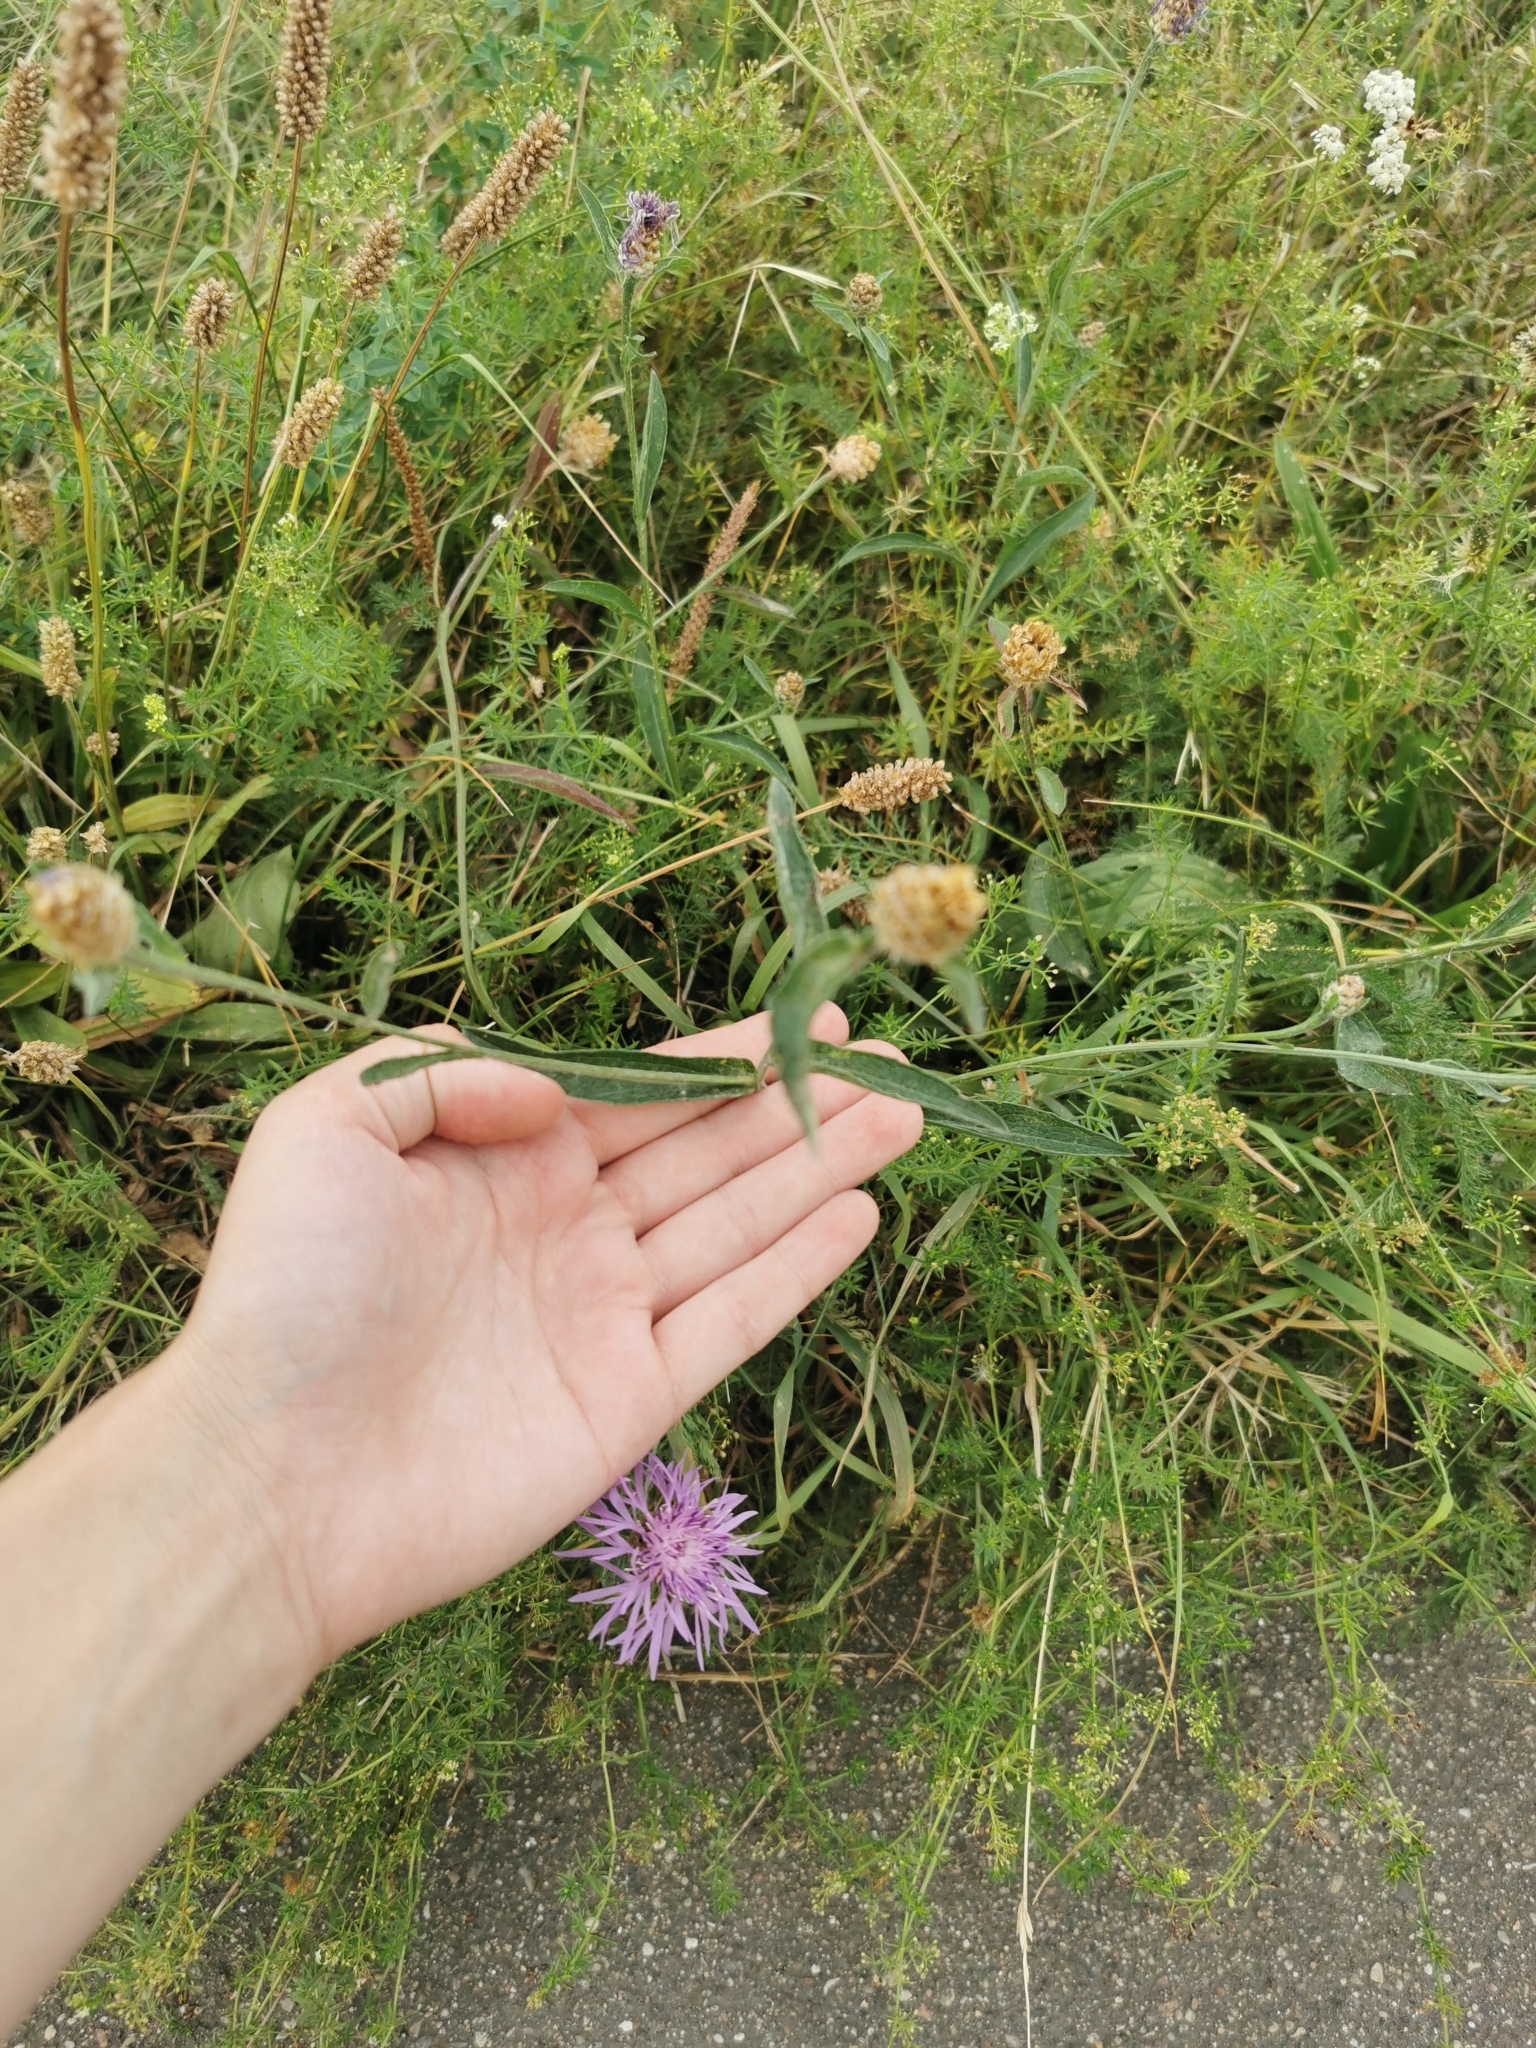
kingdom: Plantae
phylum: Tracheophyta
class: Magnoliopsida
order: Asterales
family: Asteraceae
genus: Centaurea
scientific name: Centaurea jacea
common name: Brown knapweed
